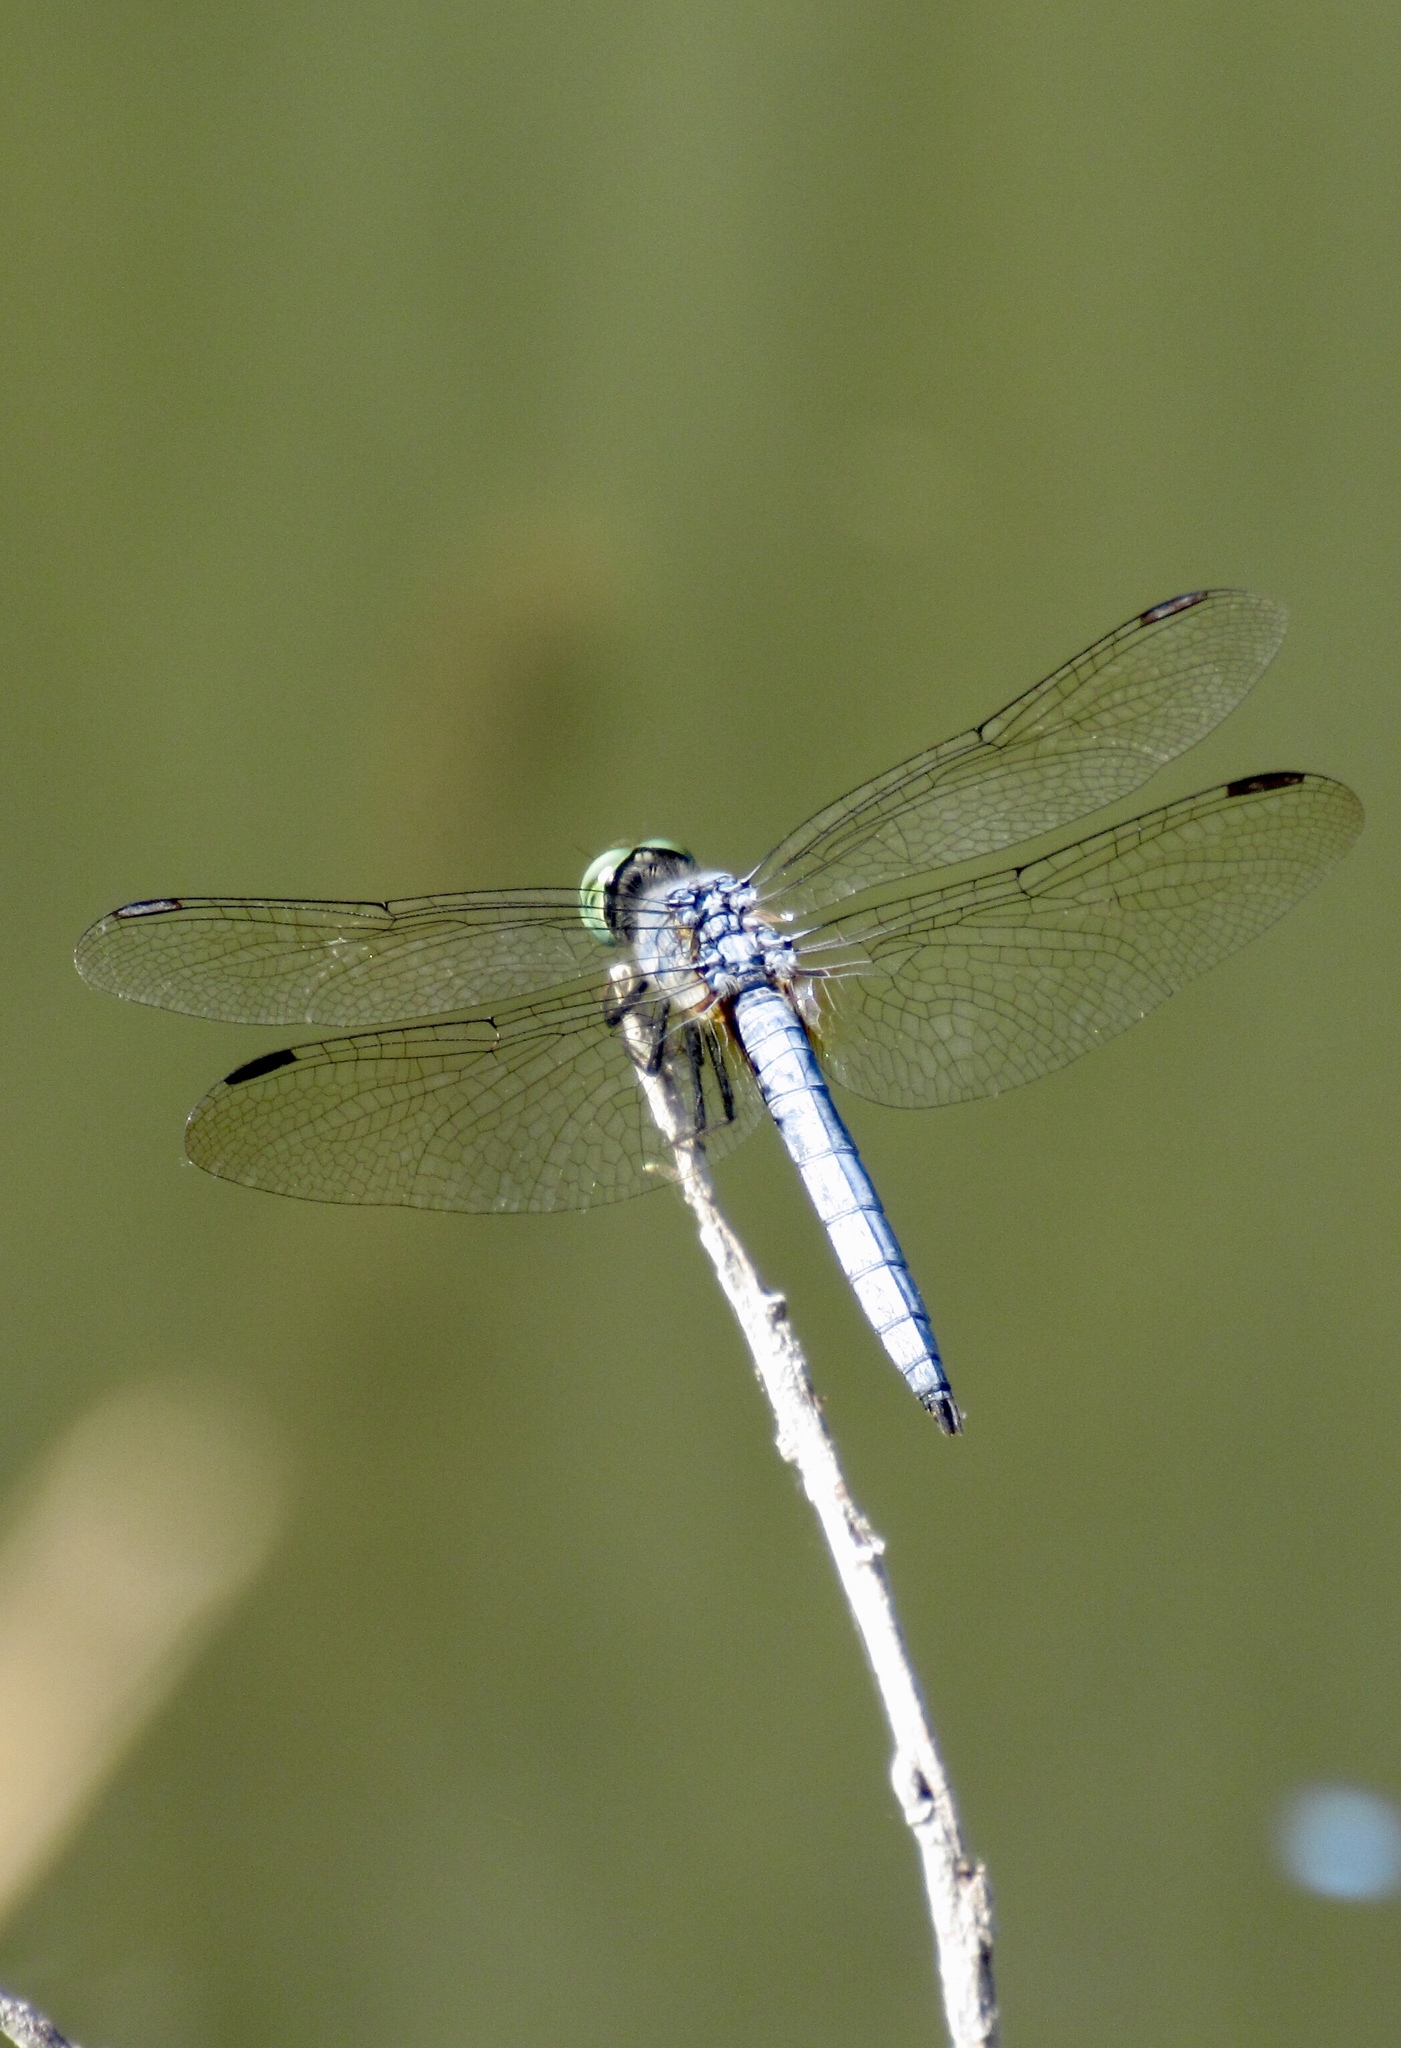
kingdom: Animalia
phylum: Arthropoda
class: Insecta
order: Odonata
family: Libellulidae
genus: Pachydiplax
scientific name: Pachydiplax longipennis
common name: Blue dasher
